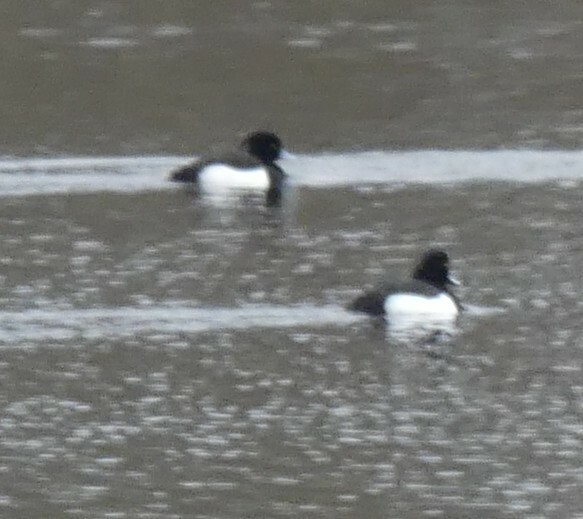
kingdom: Animalia
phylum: Chordata
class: Aves
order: Anseriformes
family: Anatidae
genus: Aythya
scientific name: Aythya fuligula
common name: Tufted duck
